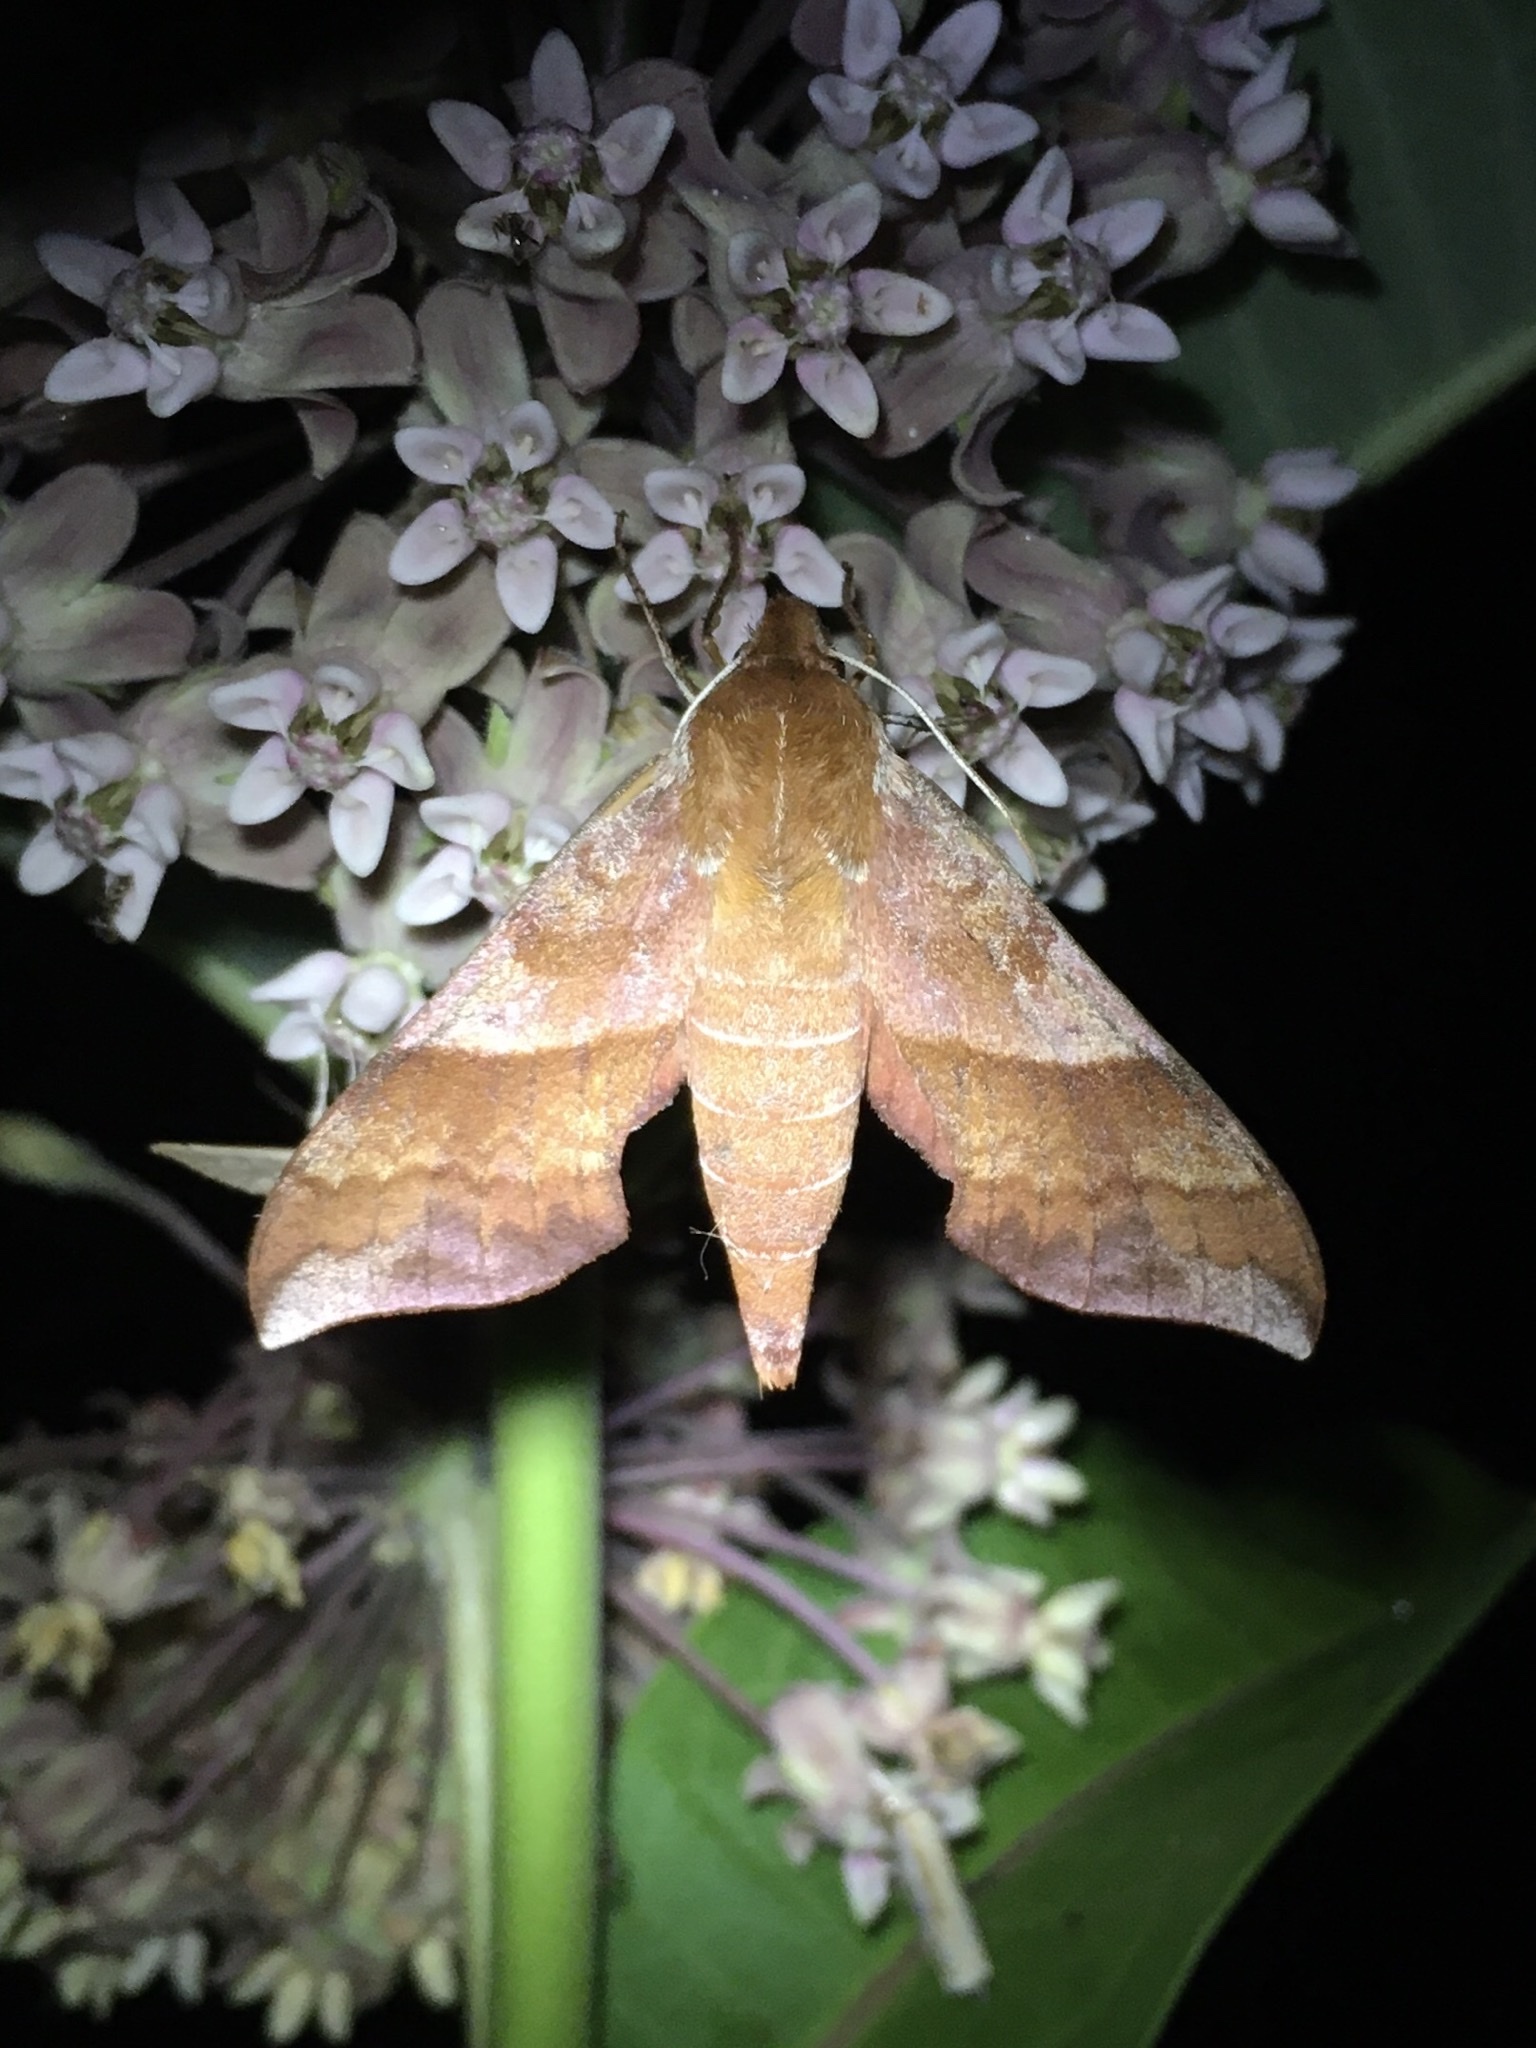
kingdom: Animalia
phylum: Arthropoda
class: Insecta
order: Lepidoptera
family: Sphingidae
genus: Darapsa
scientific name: Darapsa choerilus
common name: Azalea sphinx
